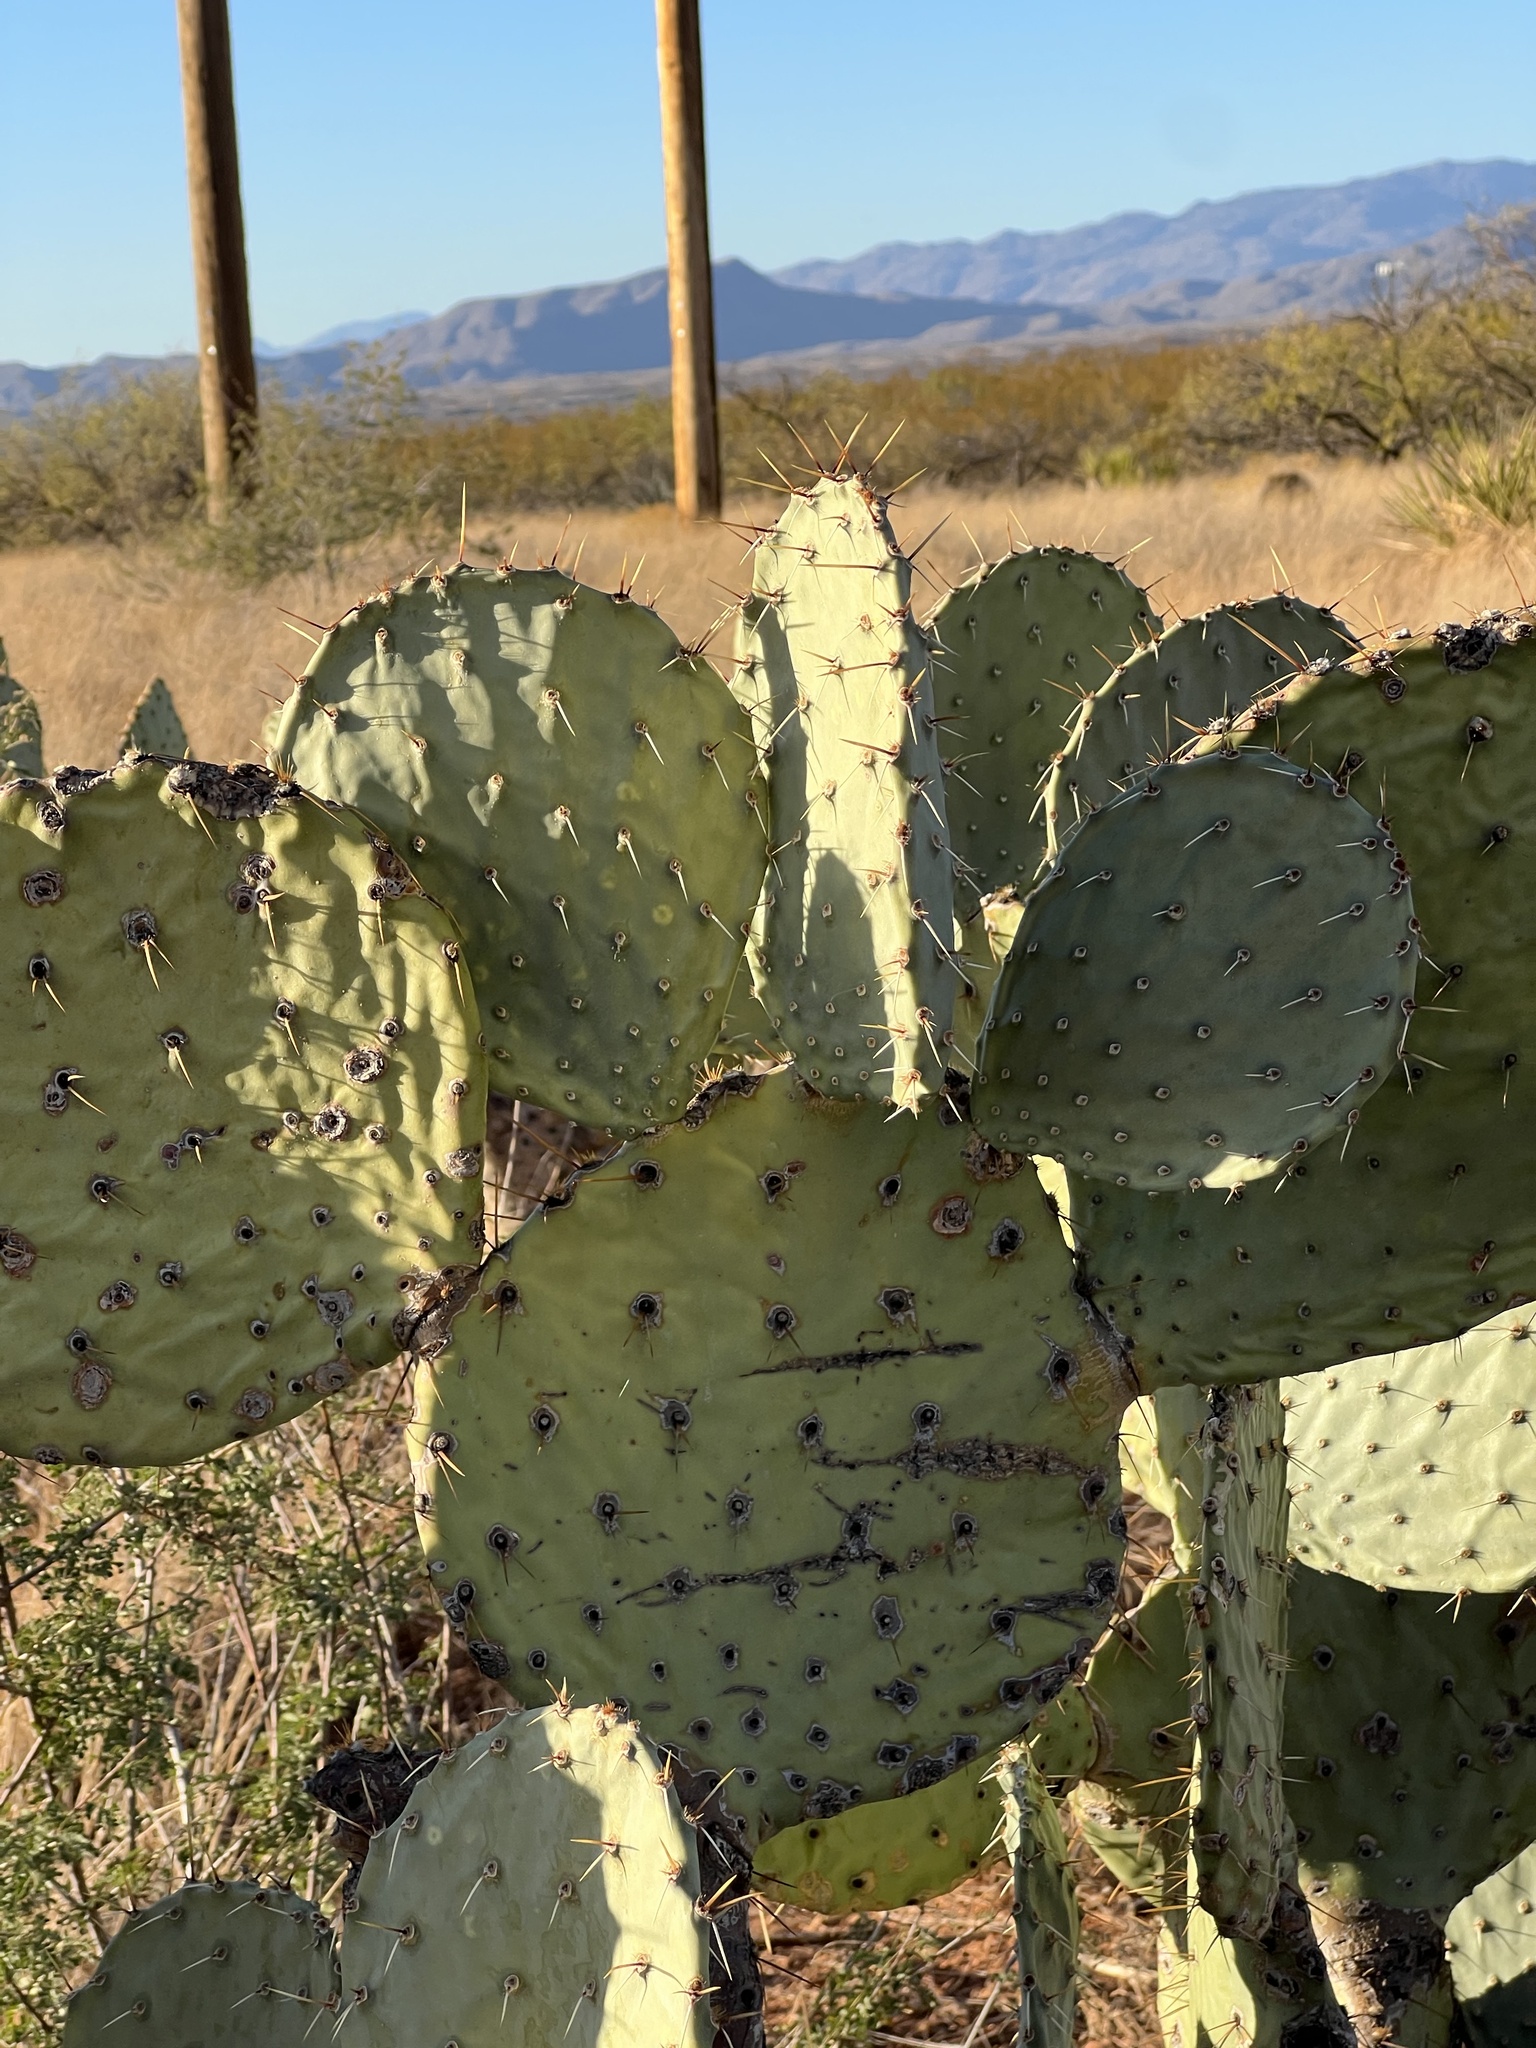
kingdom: Plantae
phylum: Tracheophyta
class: Magnoliopsida
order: Caryophyllales
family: Cactaceae
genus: Opuntia
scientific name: Opuntia engelmannii
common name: Cactus-apple
